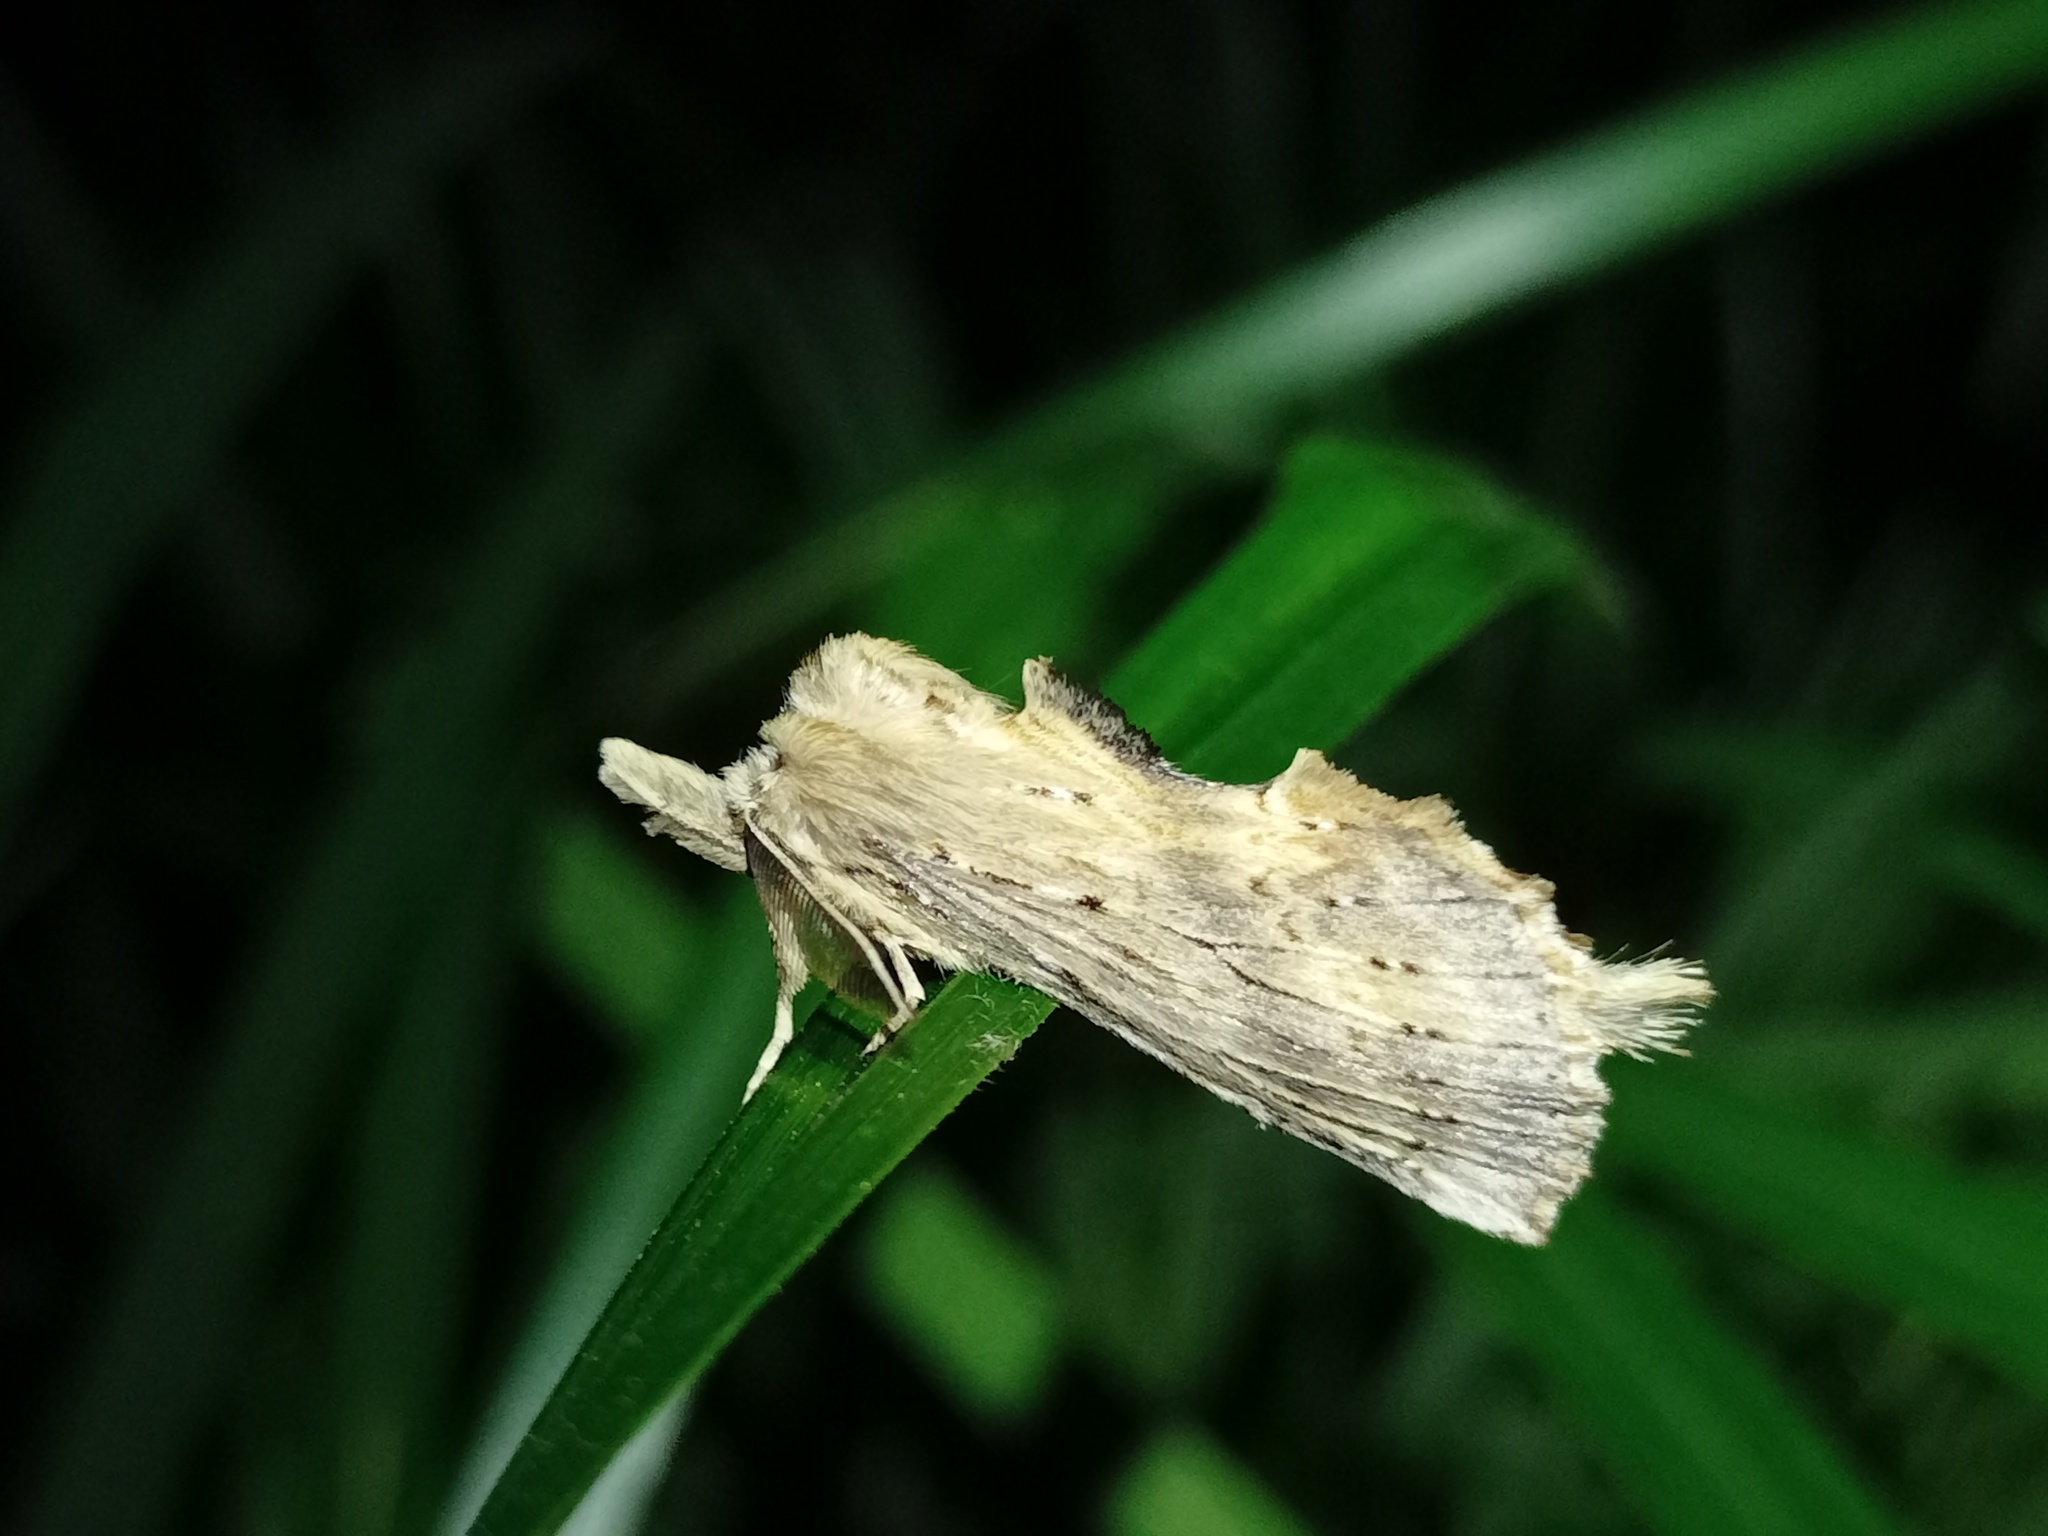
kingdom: Animalia
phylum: Arthropoda
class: Insecta
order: Lepidoptera
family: Notodontidae
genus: Pterostoma
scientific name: Pterostoma palpina
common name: Pale prominent
